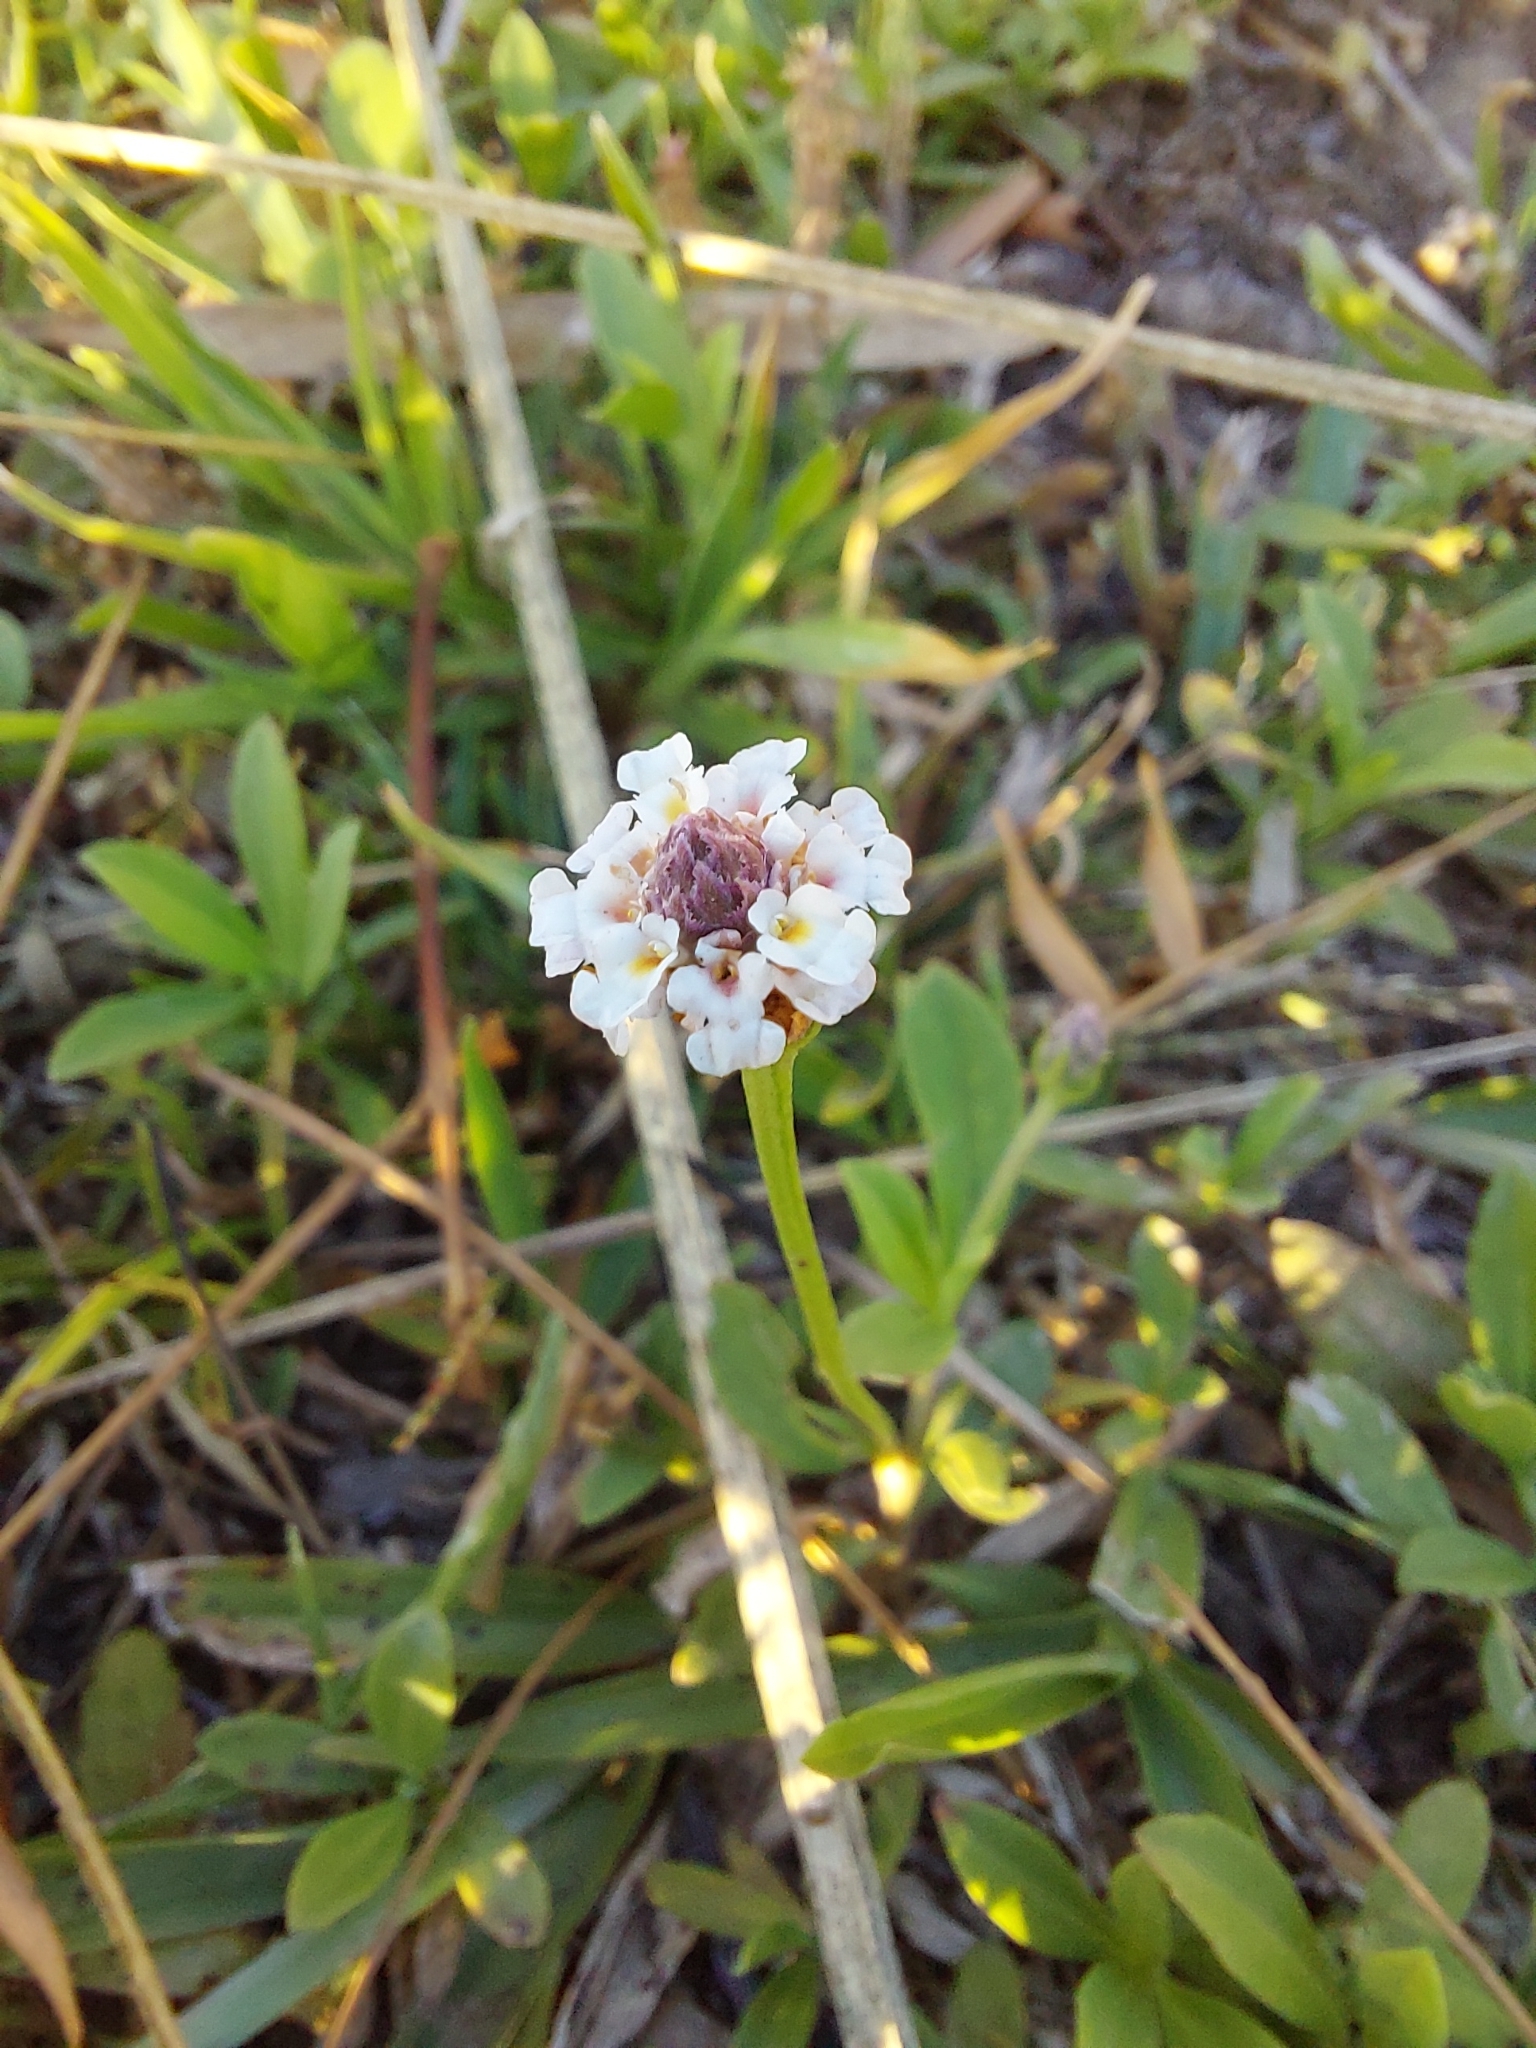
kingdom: Plantae
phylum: Tracheophyta
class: Magnoliopsida
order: Lamiales
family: Verbenaceae
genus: Phyla
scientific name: Phyla nodiflora
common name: Frogfruit
